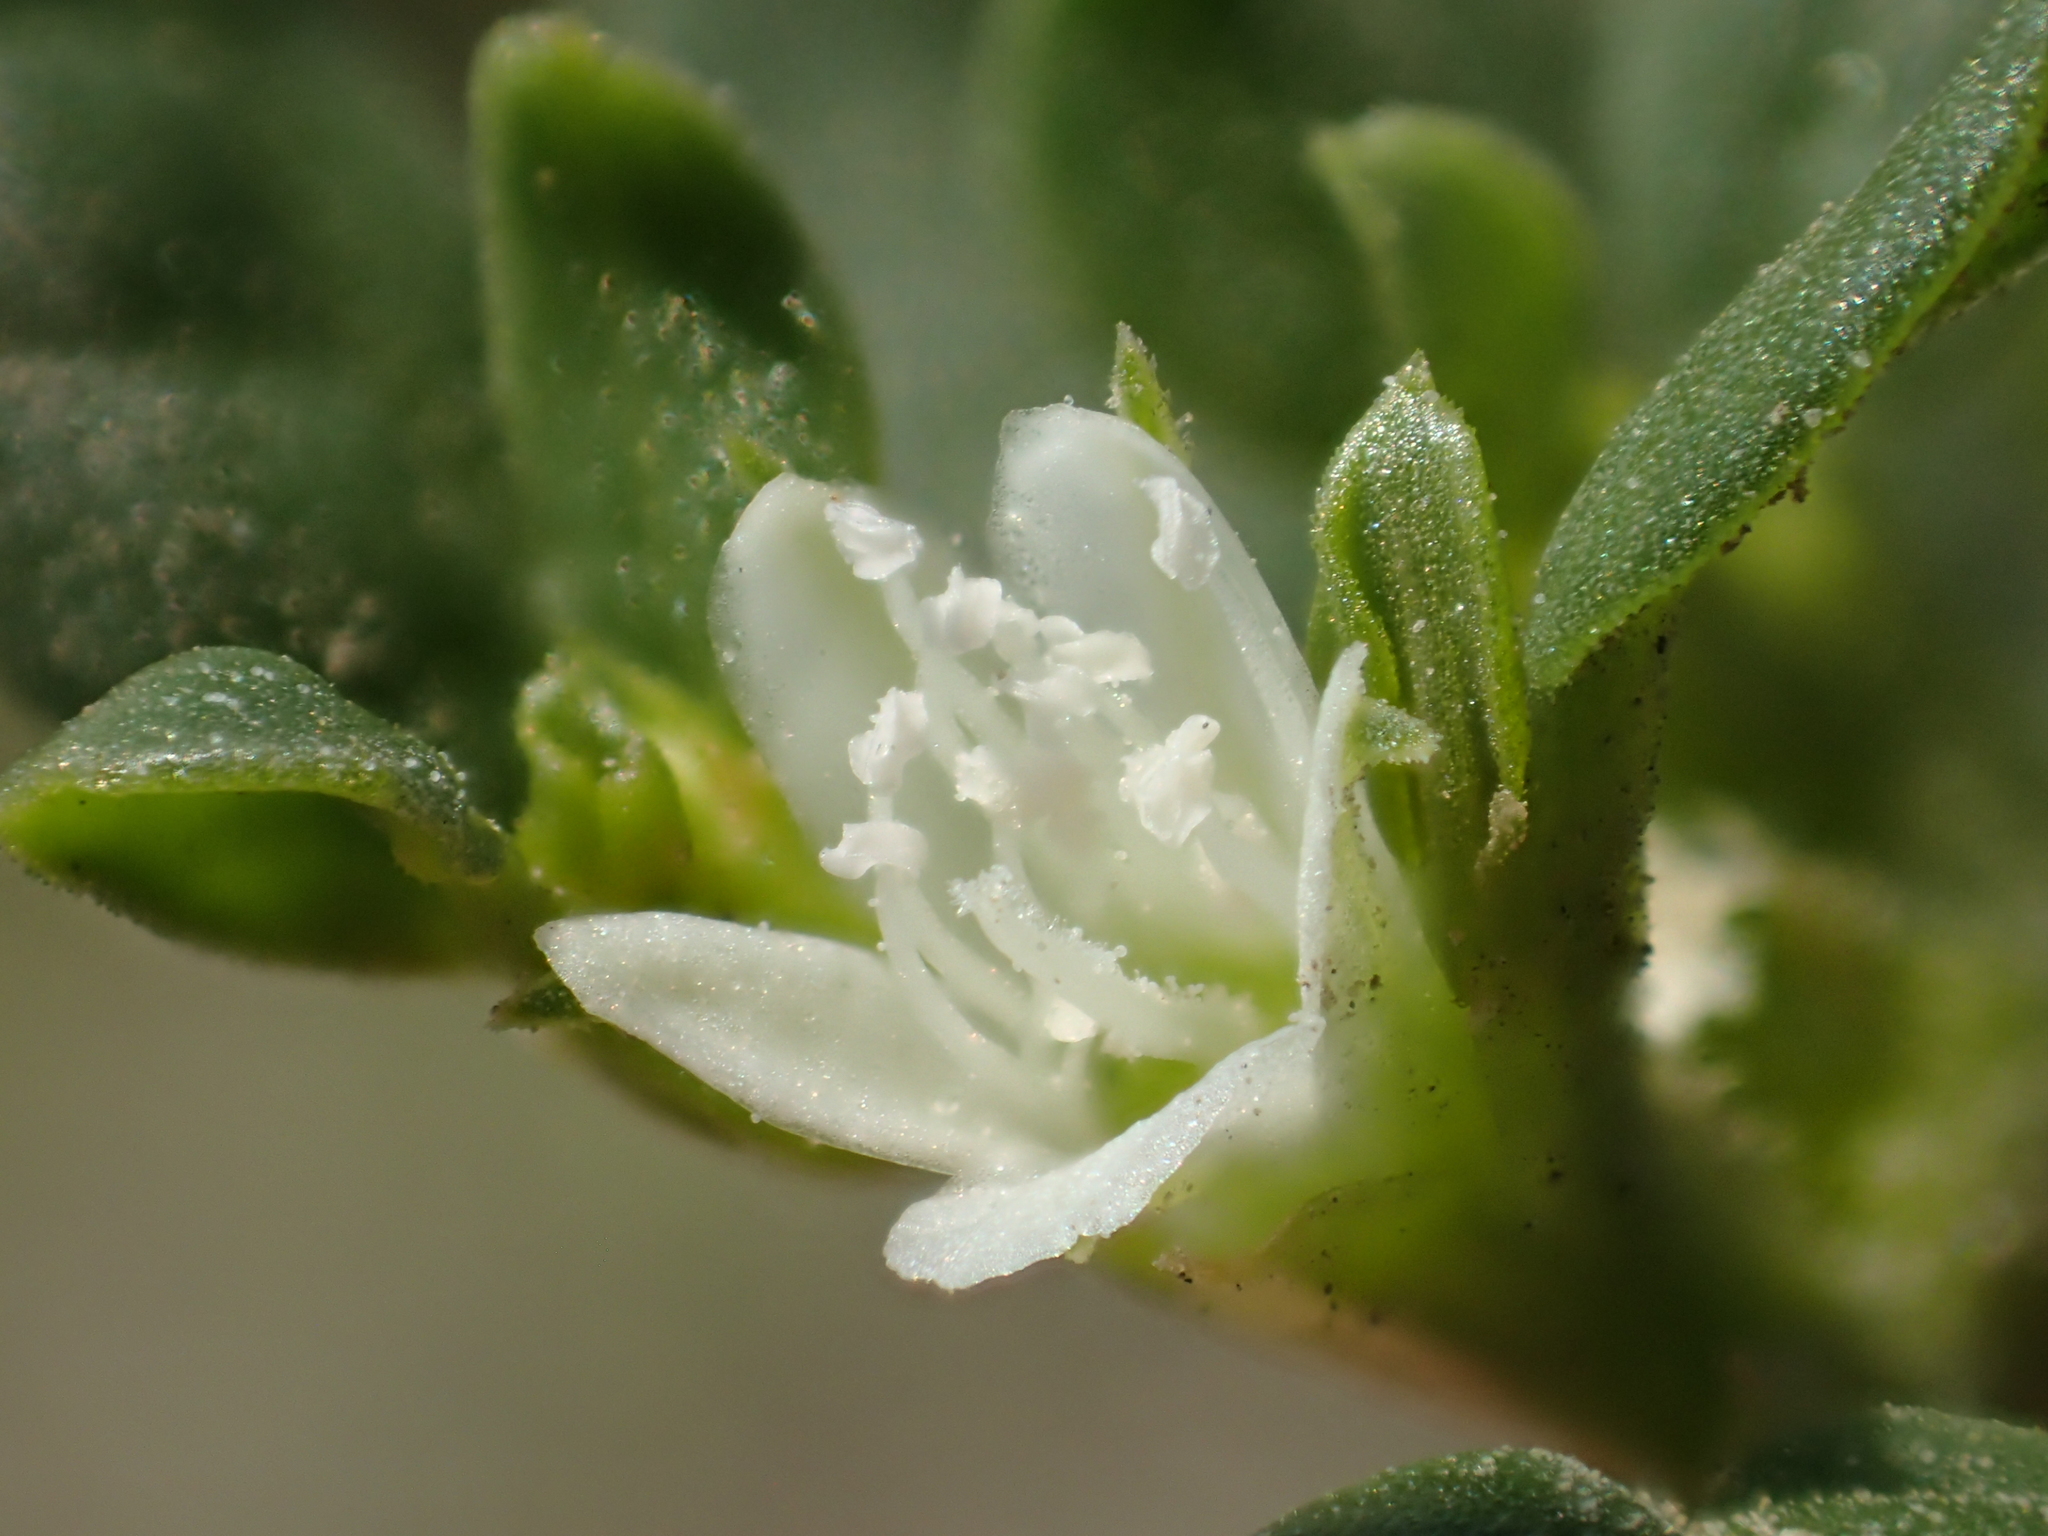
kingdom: Plantae
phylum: Tracheophyta
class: Magnoliopsida
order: Caryophyllales
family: Aizoaceae
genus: Trianthema
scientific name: Trianthema portulacastrum
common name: Desert horsepurslane
